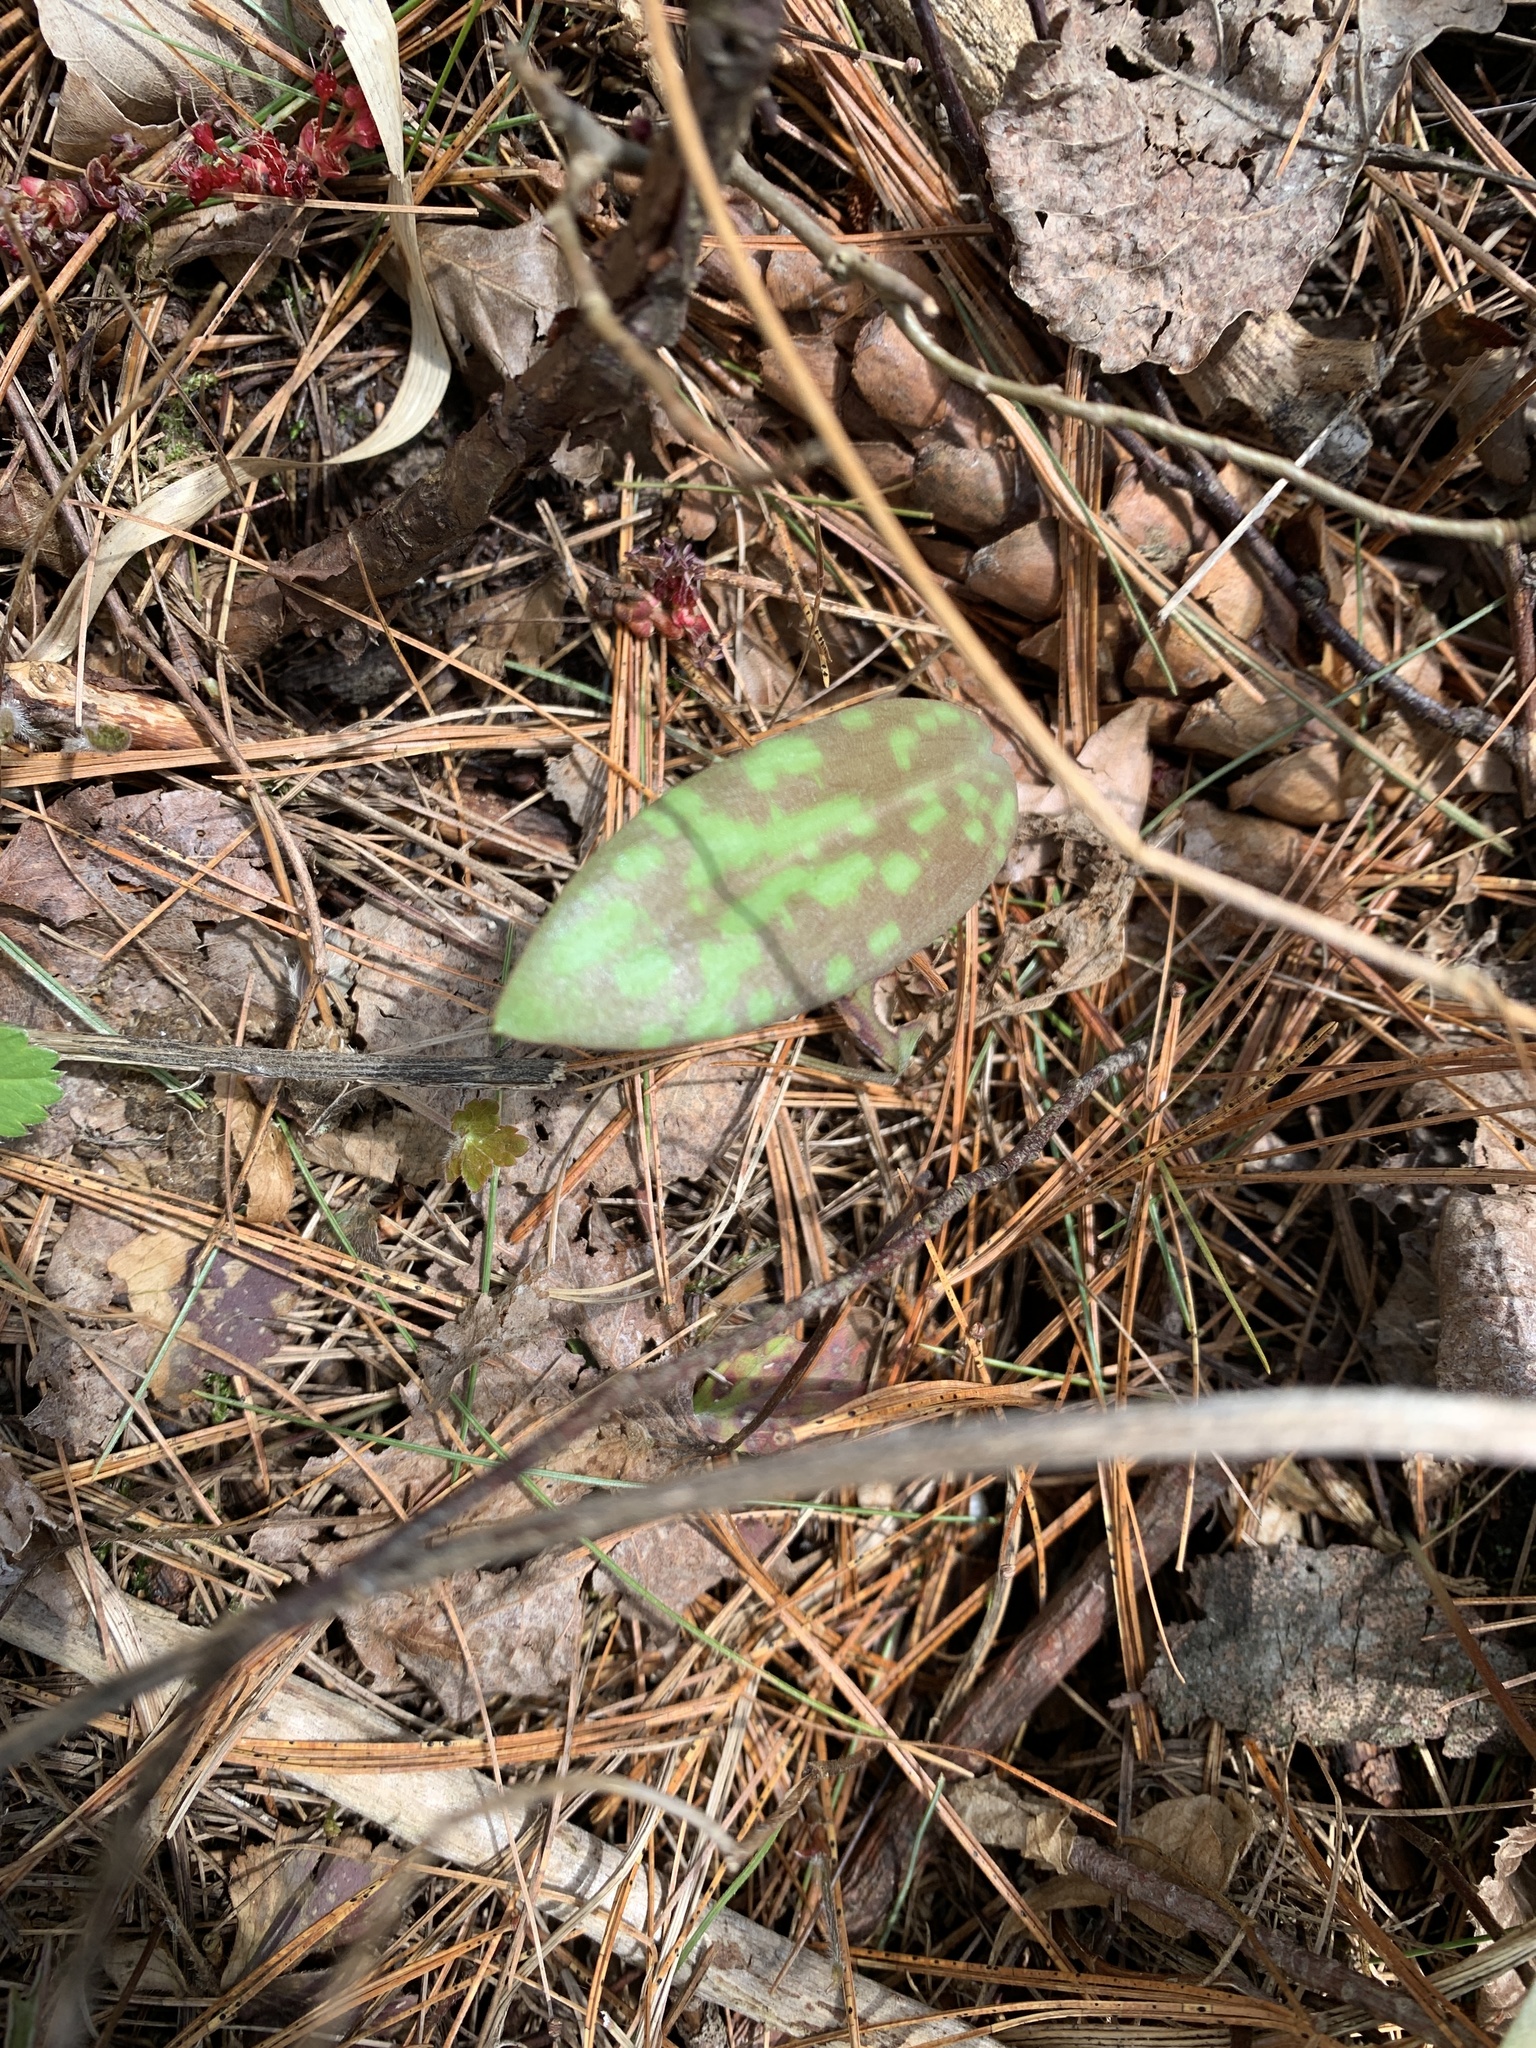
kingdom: Plantae
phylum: Tracheophyta
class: Liliopsida
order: Liliales
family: Liliaceae
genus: Erythronium
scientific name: Erythronium americanum
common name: Yellow adder's-tongue
